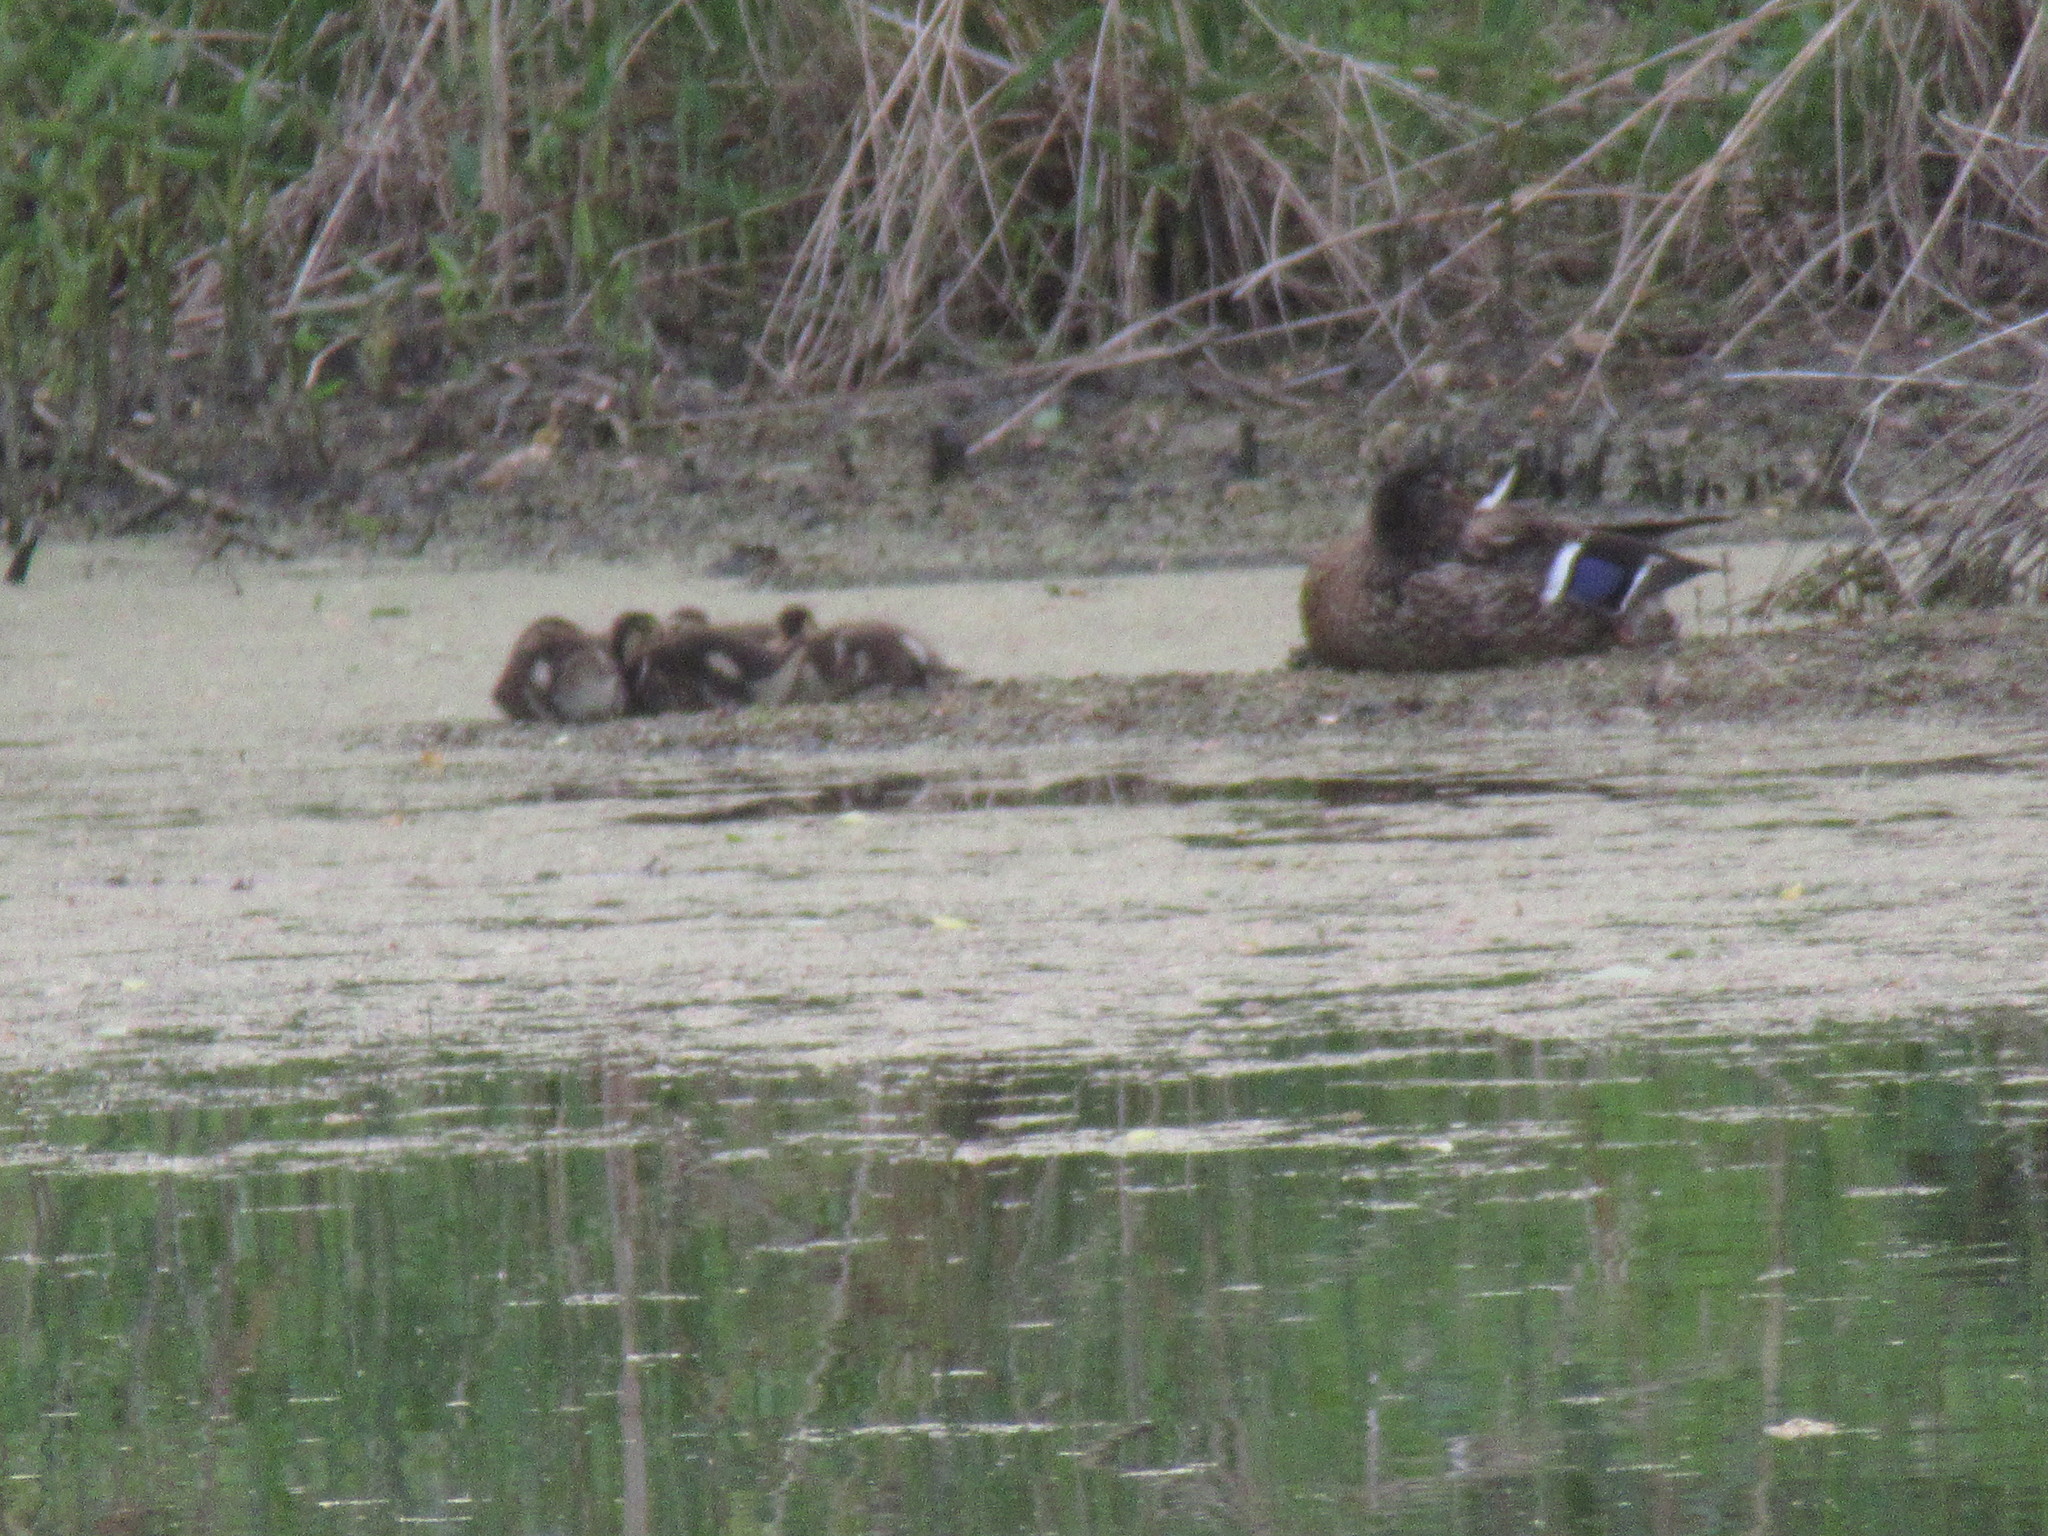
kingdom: Animalia
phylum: Chordata
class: Aves
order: Anseriformes
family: Anatidae
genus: Anas
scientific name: Anas platyrhynchos
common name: Mallard
